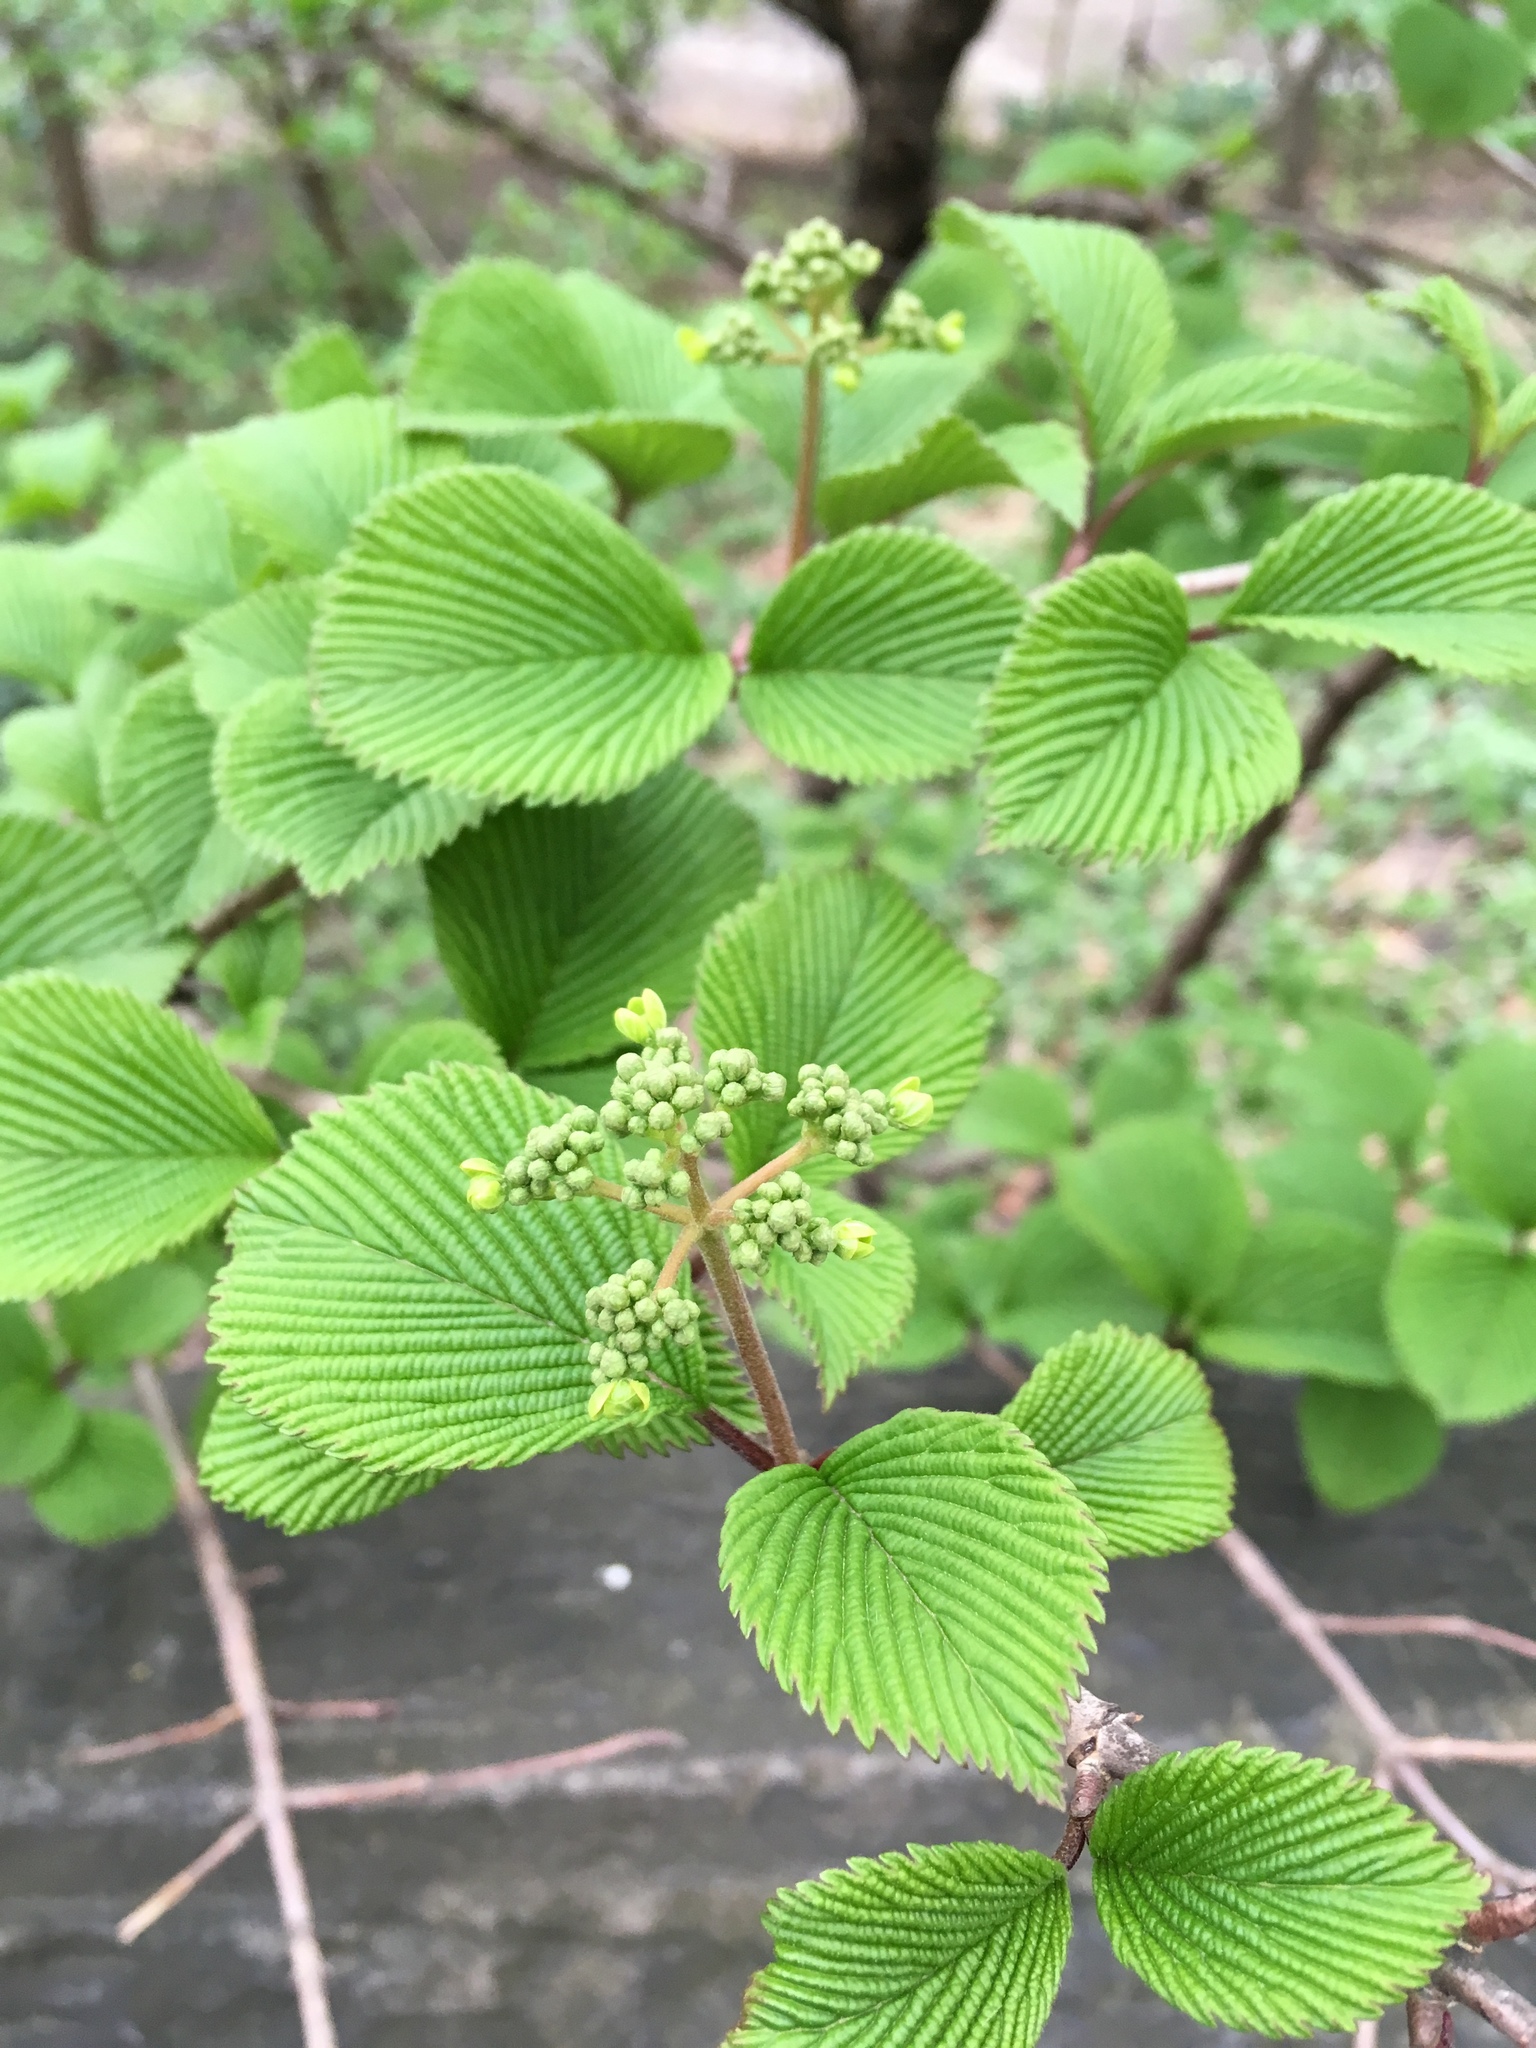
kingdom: Plantae
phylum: Tracheophyta
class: Magnoliopsida
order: Dipsacales
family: Viburnaceae
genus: Viburnum
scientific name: Viburnum plicatum
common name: Japanese snowball
